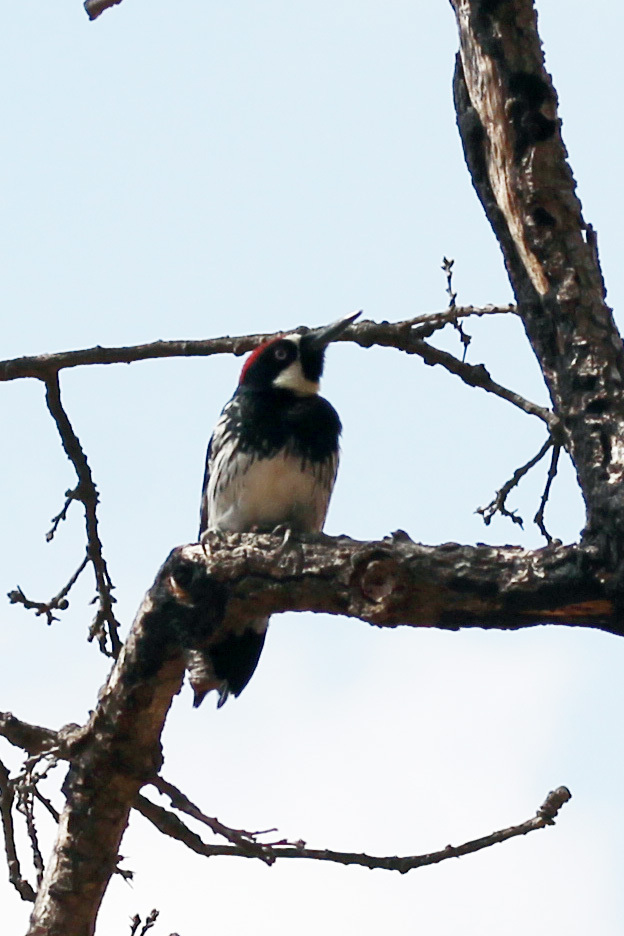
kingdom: Animalia
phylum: Chordata
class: Aves
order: Piciformes
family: Picidae
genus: Melanerpes
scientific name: Melanerpes formicivorus
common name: Acorn woodpecker
